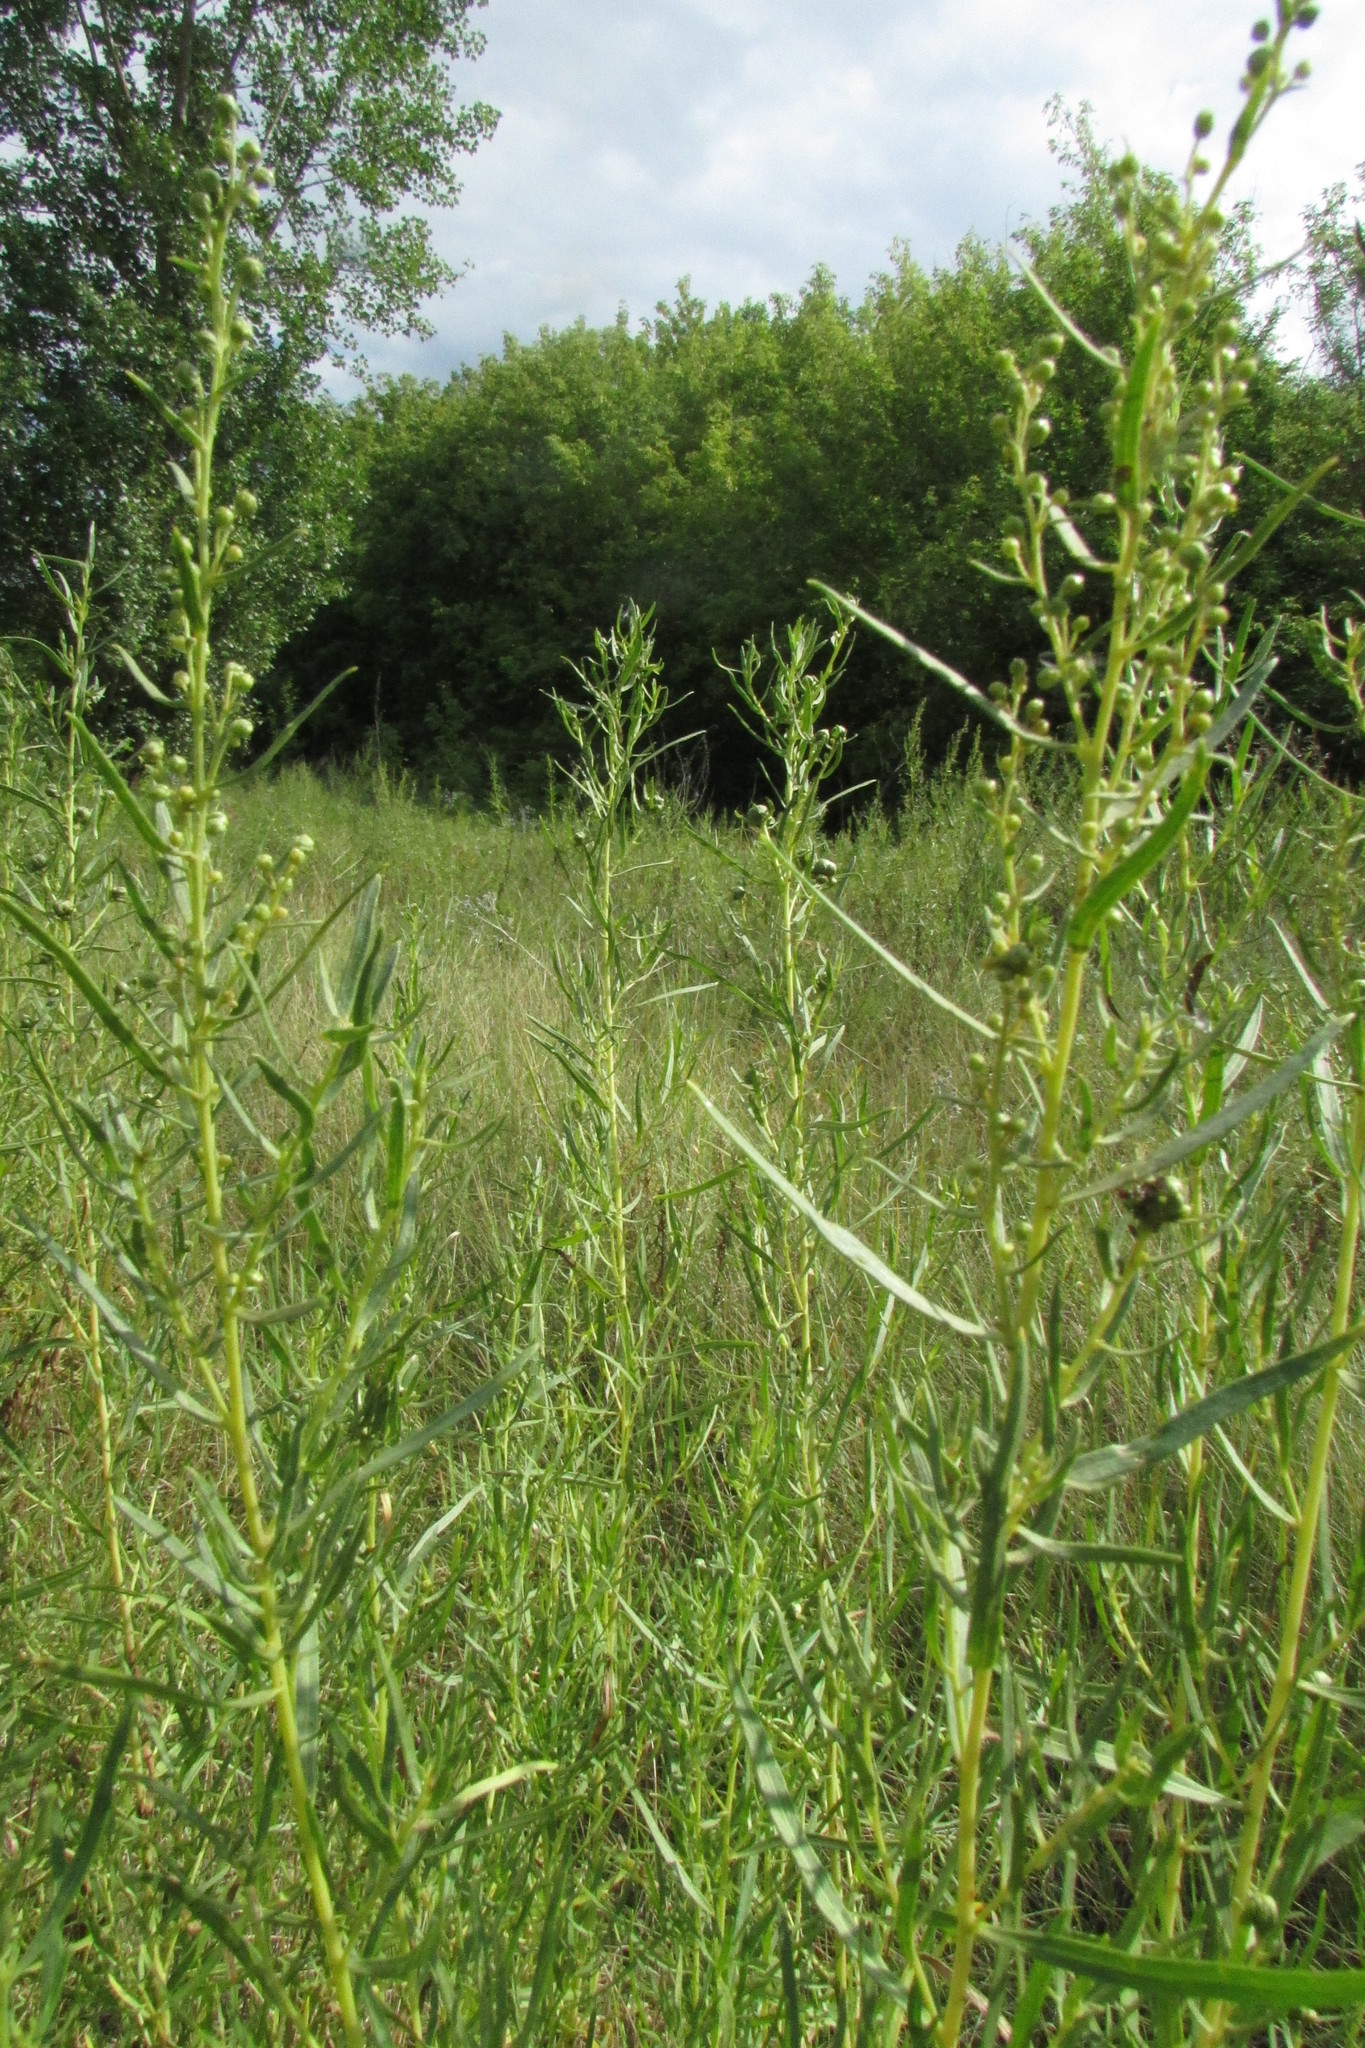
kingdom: Plantae
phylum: Tracheophyta
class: Magnoliopsida
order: Asterales
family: Asteraceae
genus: Artemisia
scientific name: Artemisia dracunculus
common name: Tarragon
